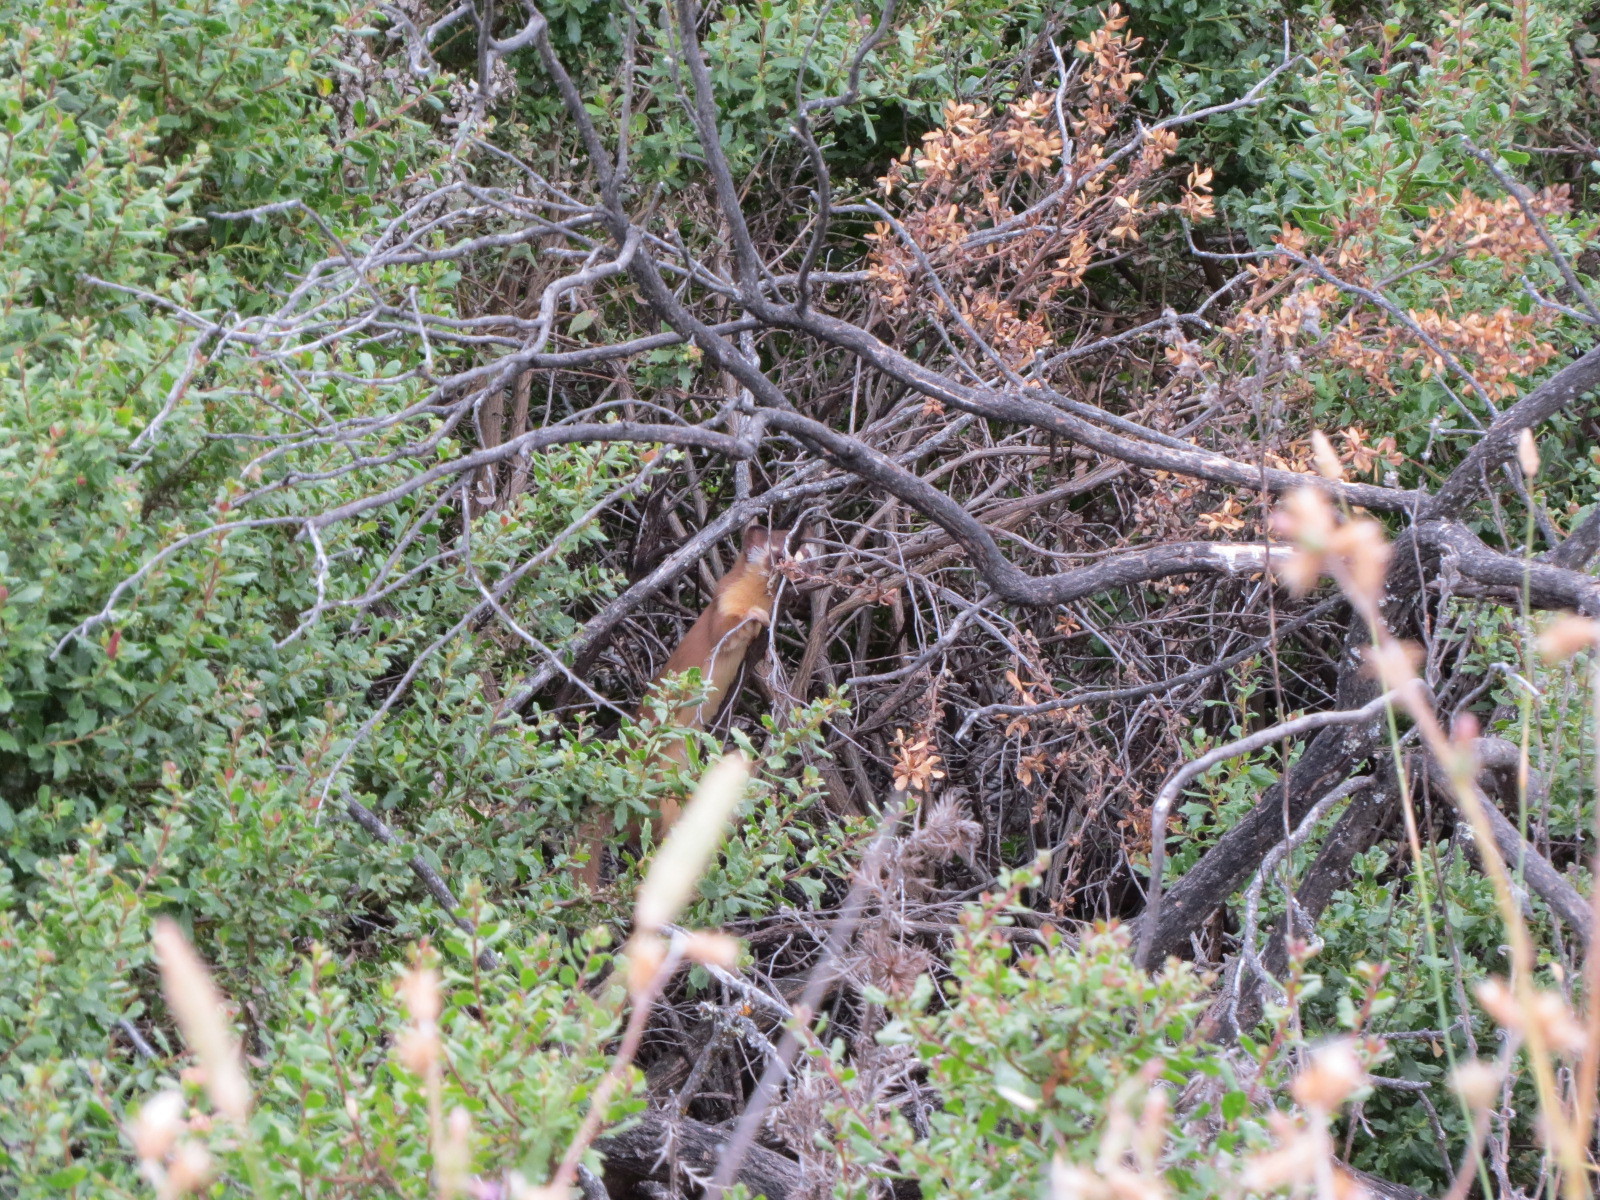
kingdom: Animalia
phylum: Chordata
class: Mammalia
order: Carnivora
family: Mustelidae
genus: Mustela
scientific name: Mustela
